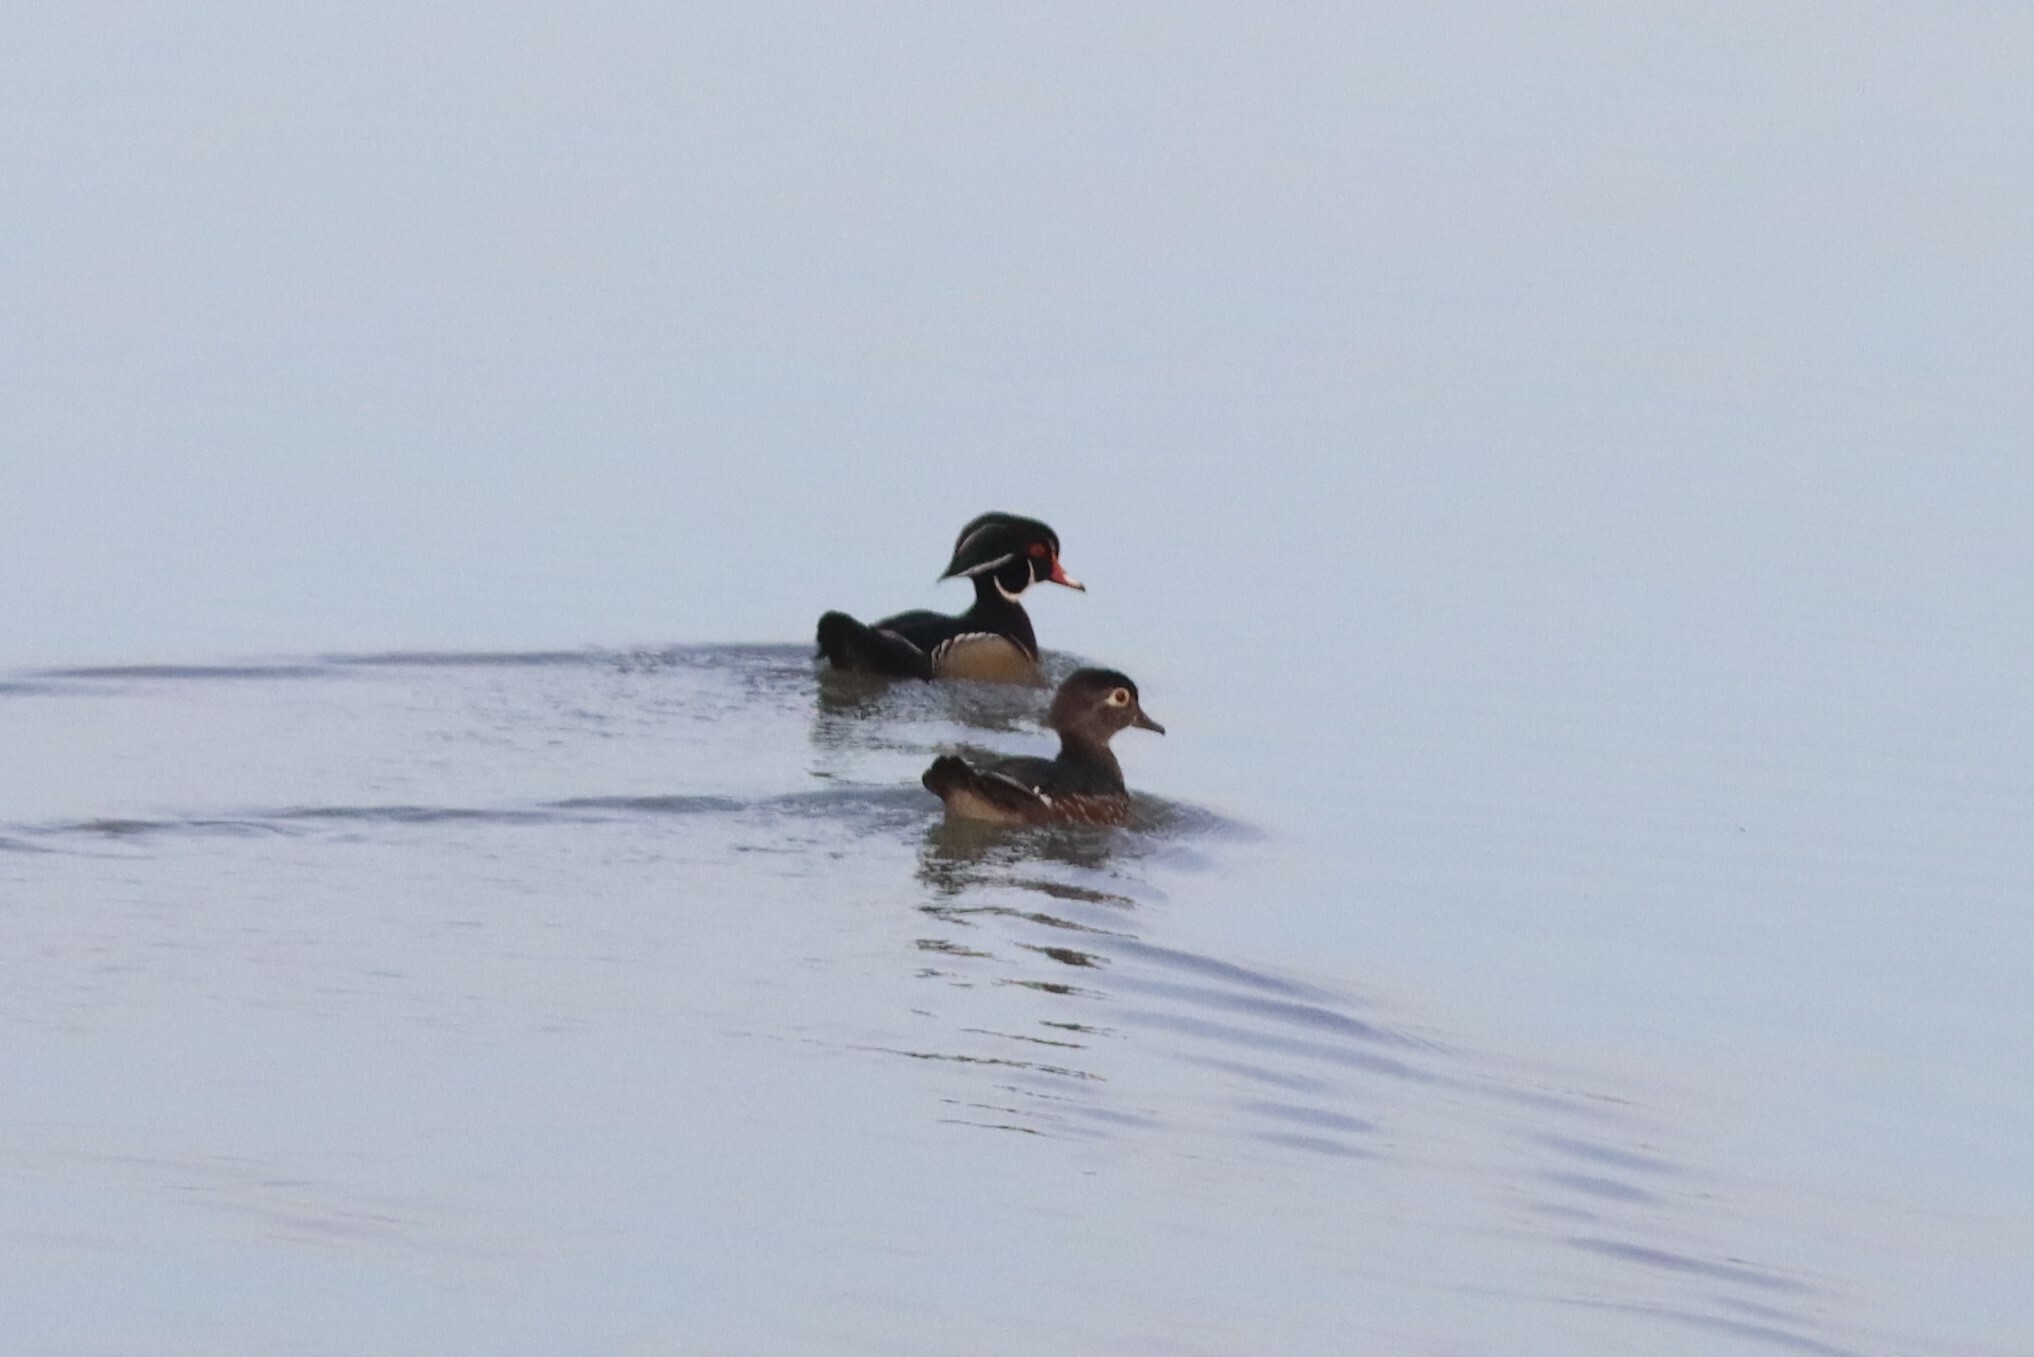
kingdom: Animalia
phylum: Chordata
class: Aves
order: Anseriformes
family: Anatidae
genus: Aix
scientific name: Aix sponsa
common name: Wood duck
